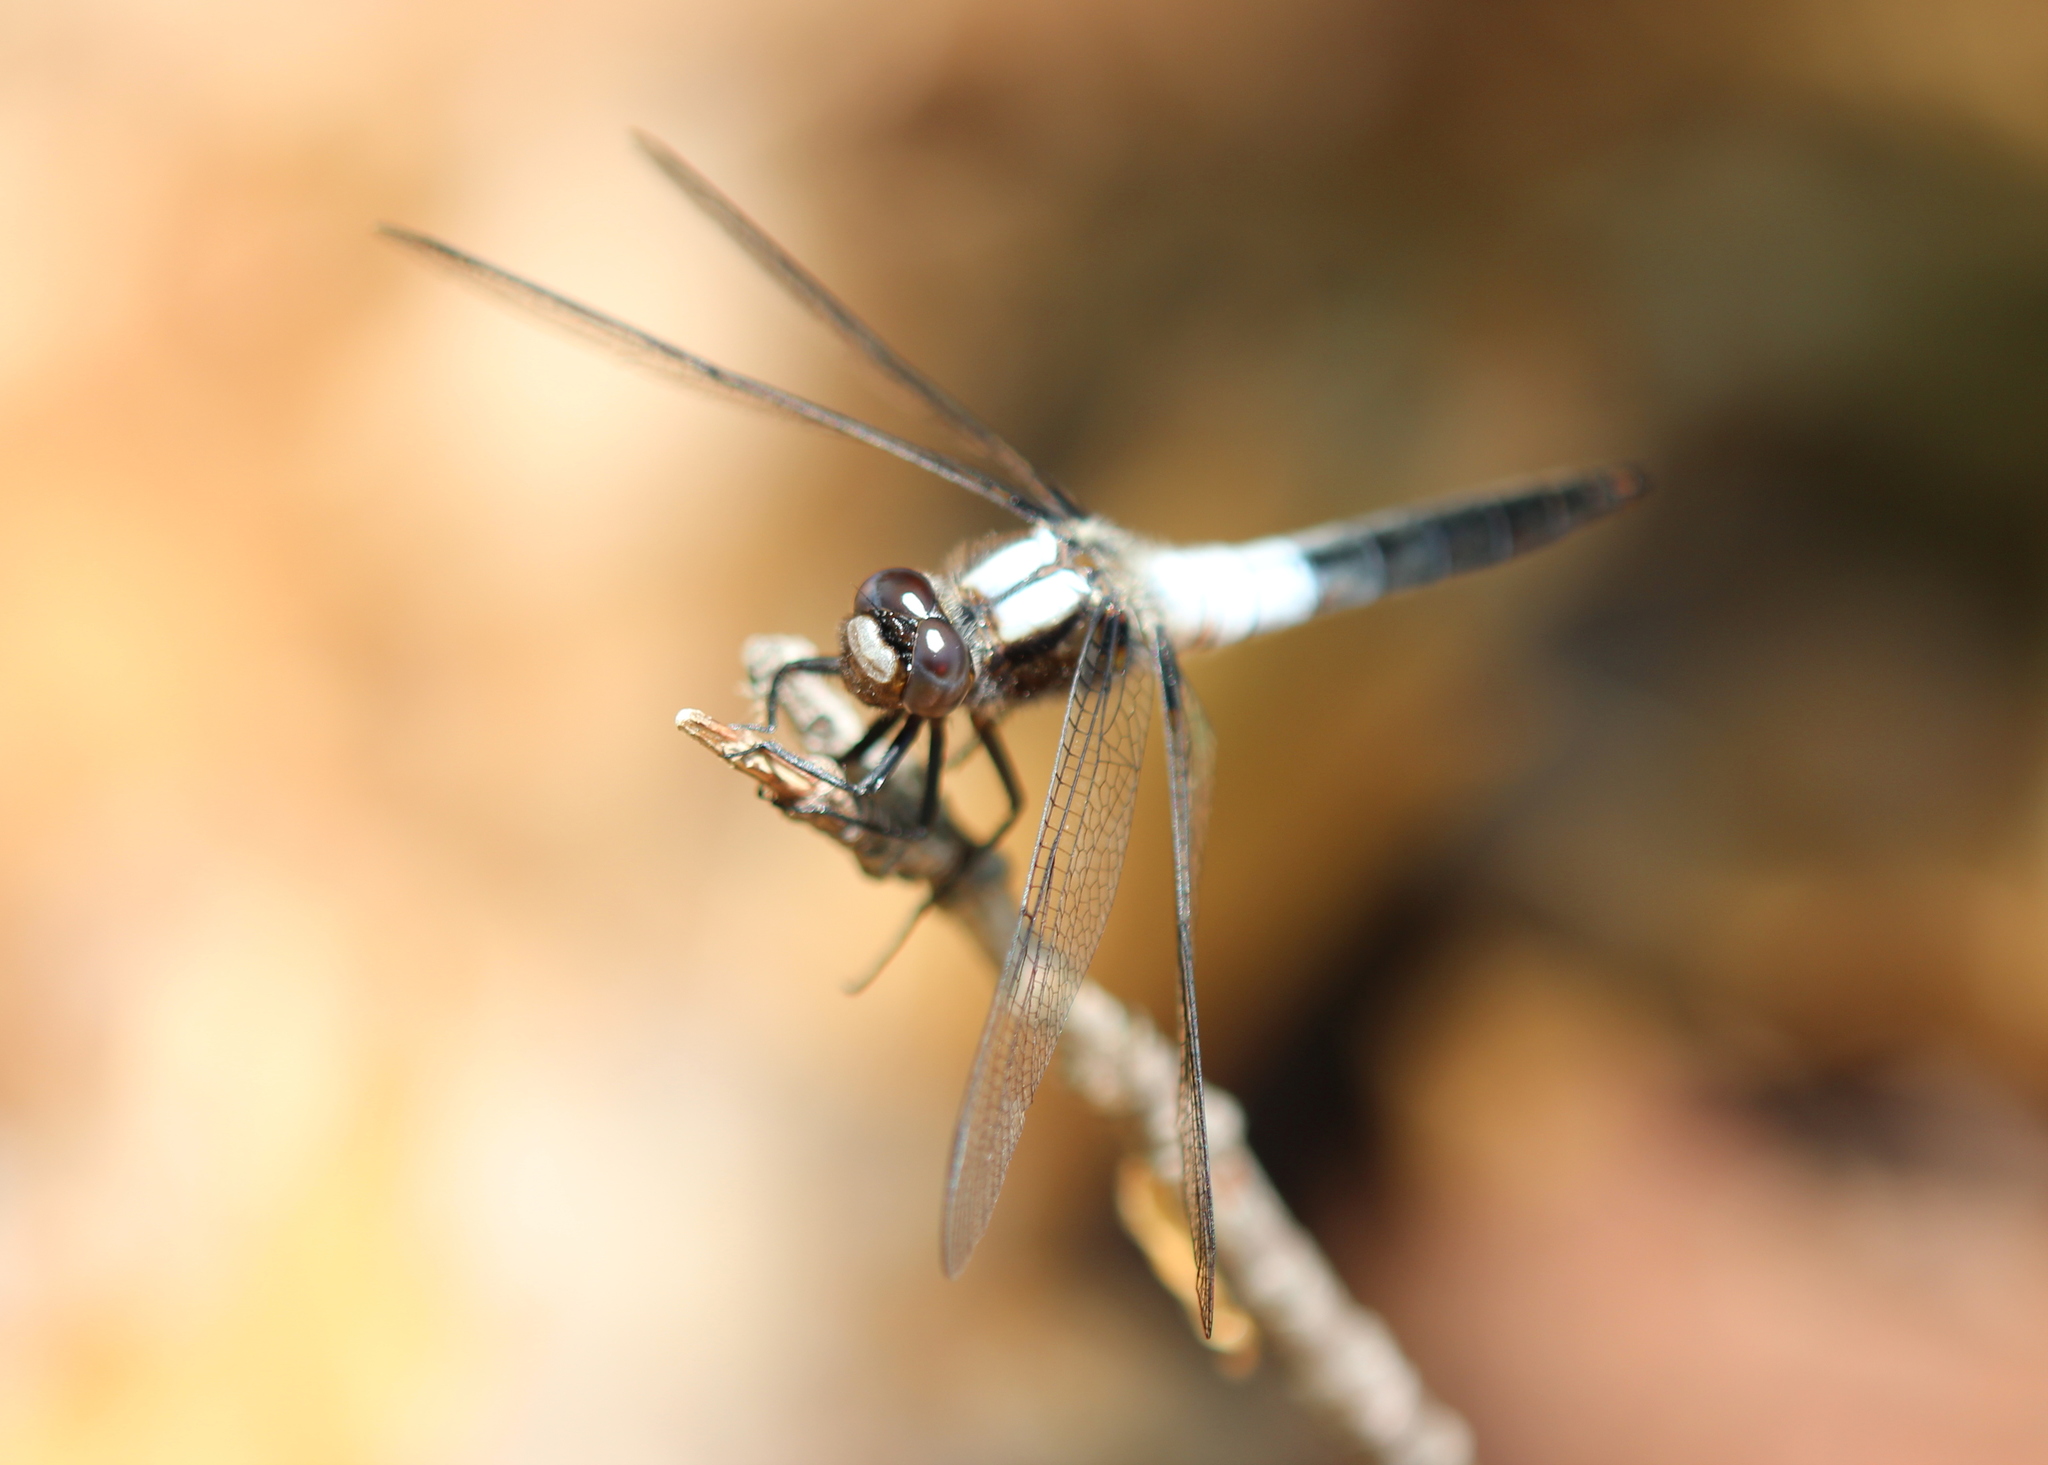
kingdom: Animalia
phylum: Arthropoda
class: Insecta
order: Odonata
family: Libellulidae
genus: Ladona
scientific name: Ladona julia
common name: Chalk-fronted corporal
